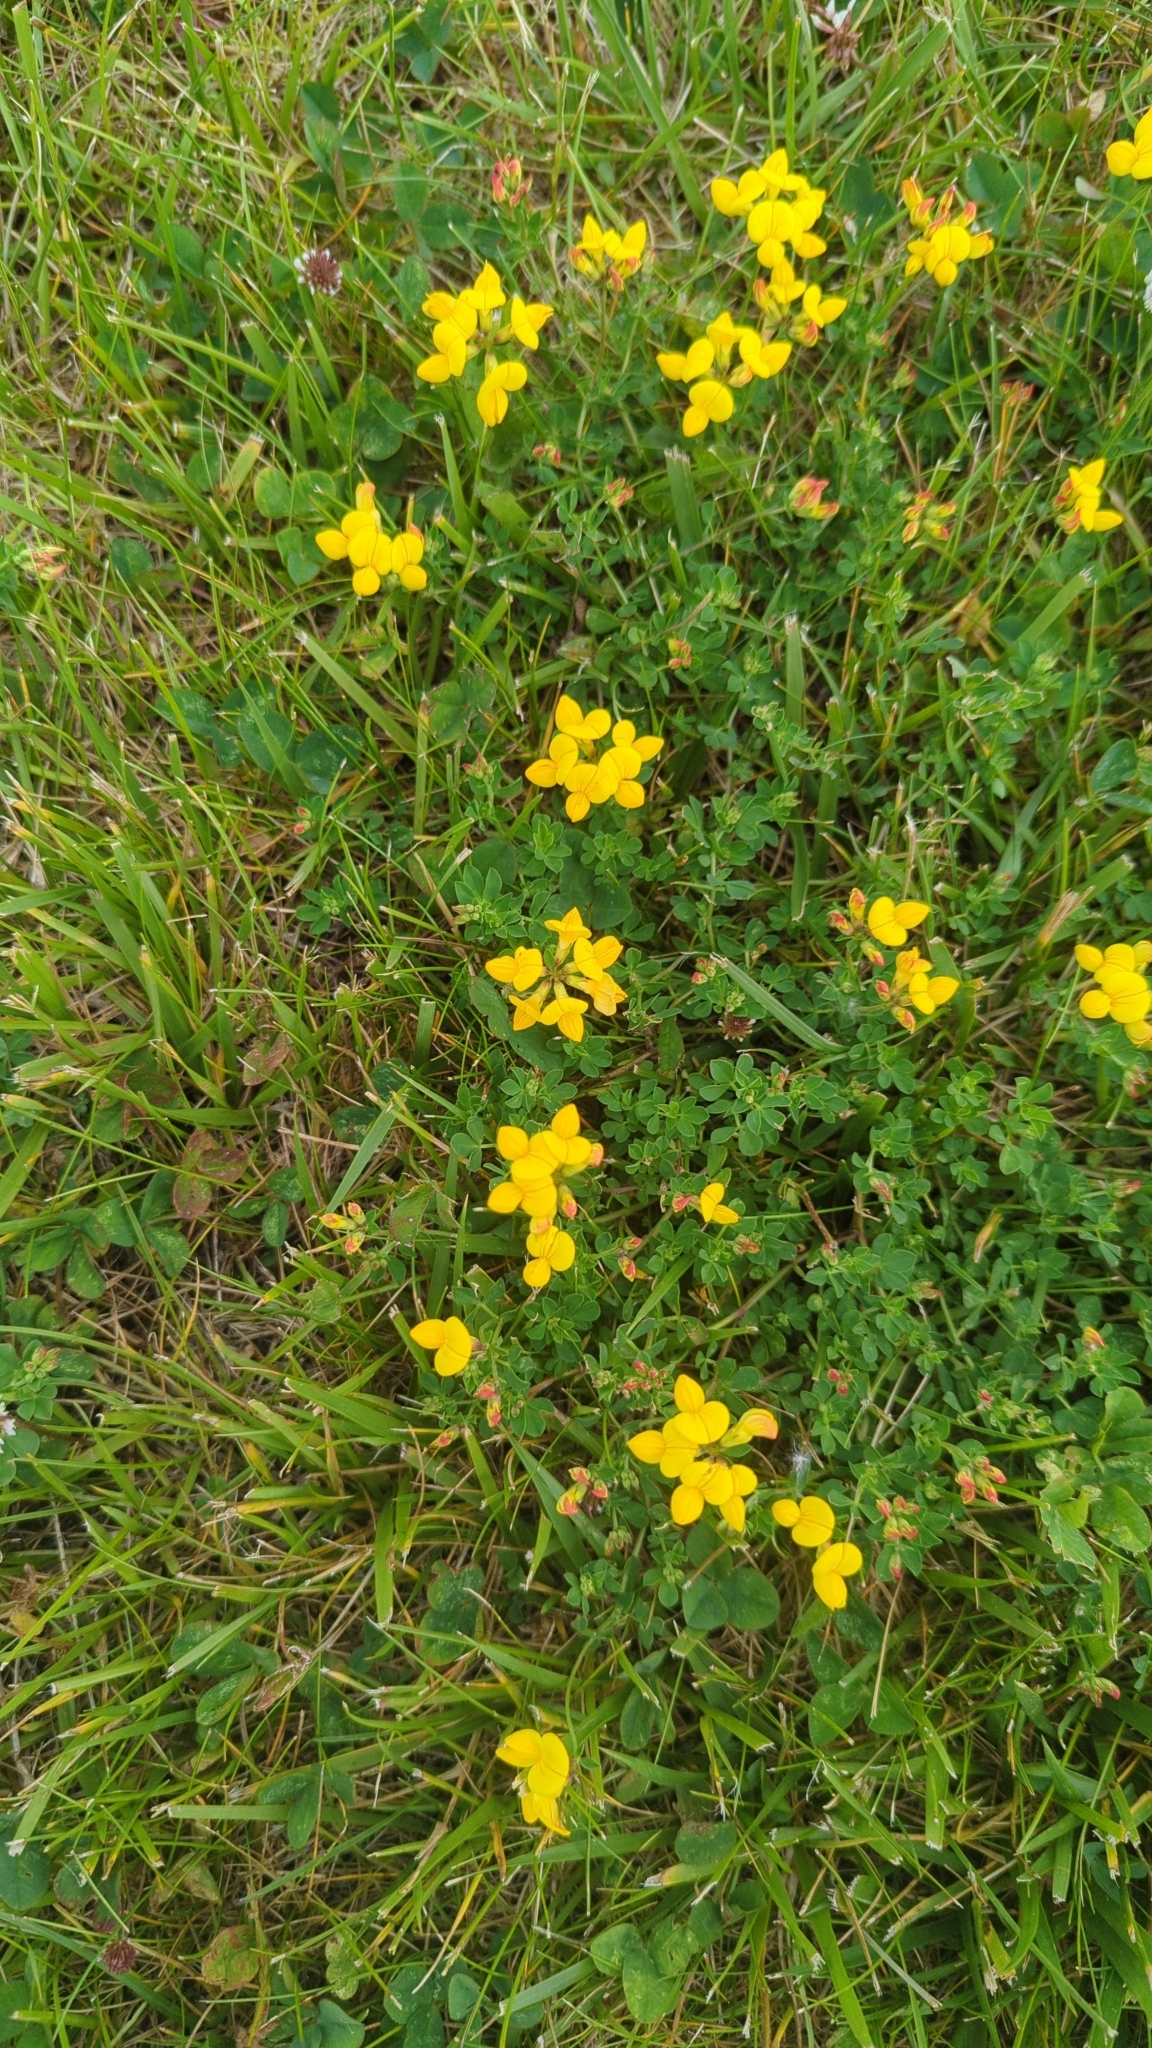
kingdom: Plantae
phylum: Tracheophyta
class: Magnoliopsida
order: Fabales
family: Fabaceae
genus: Lotus
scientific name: Lotus corniculatus
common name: Common bird's-foot-trefoil
